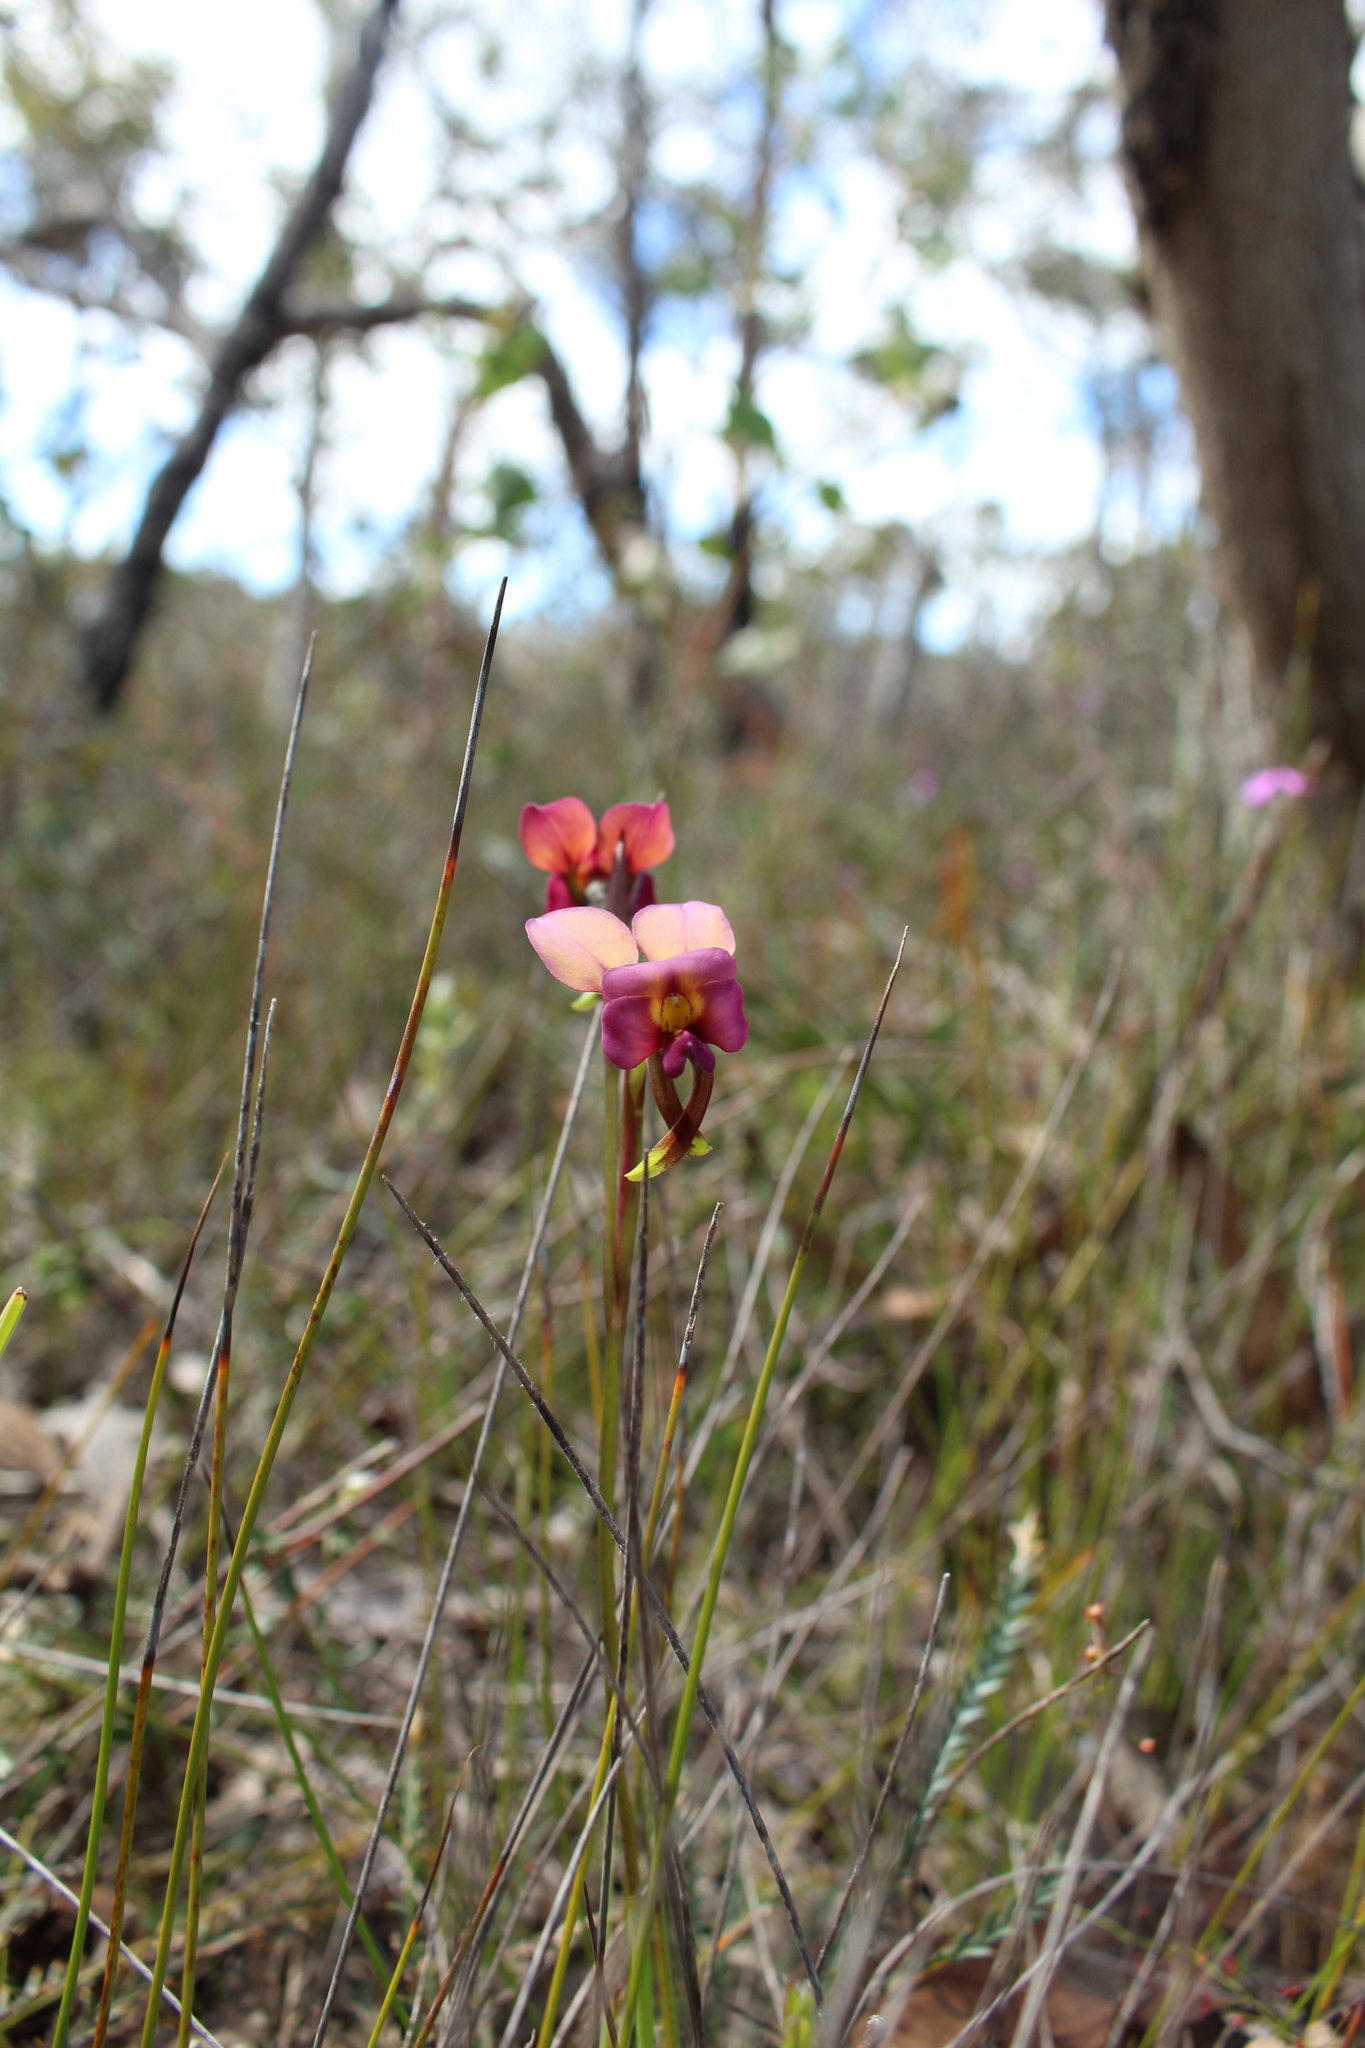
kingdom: Plantae
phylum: Tracheophyta
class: Liliopsida
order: Asparagales
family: Orchidaceae
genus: Diuris
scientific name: Diuris longifolia
